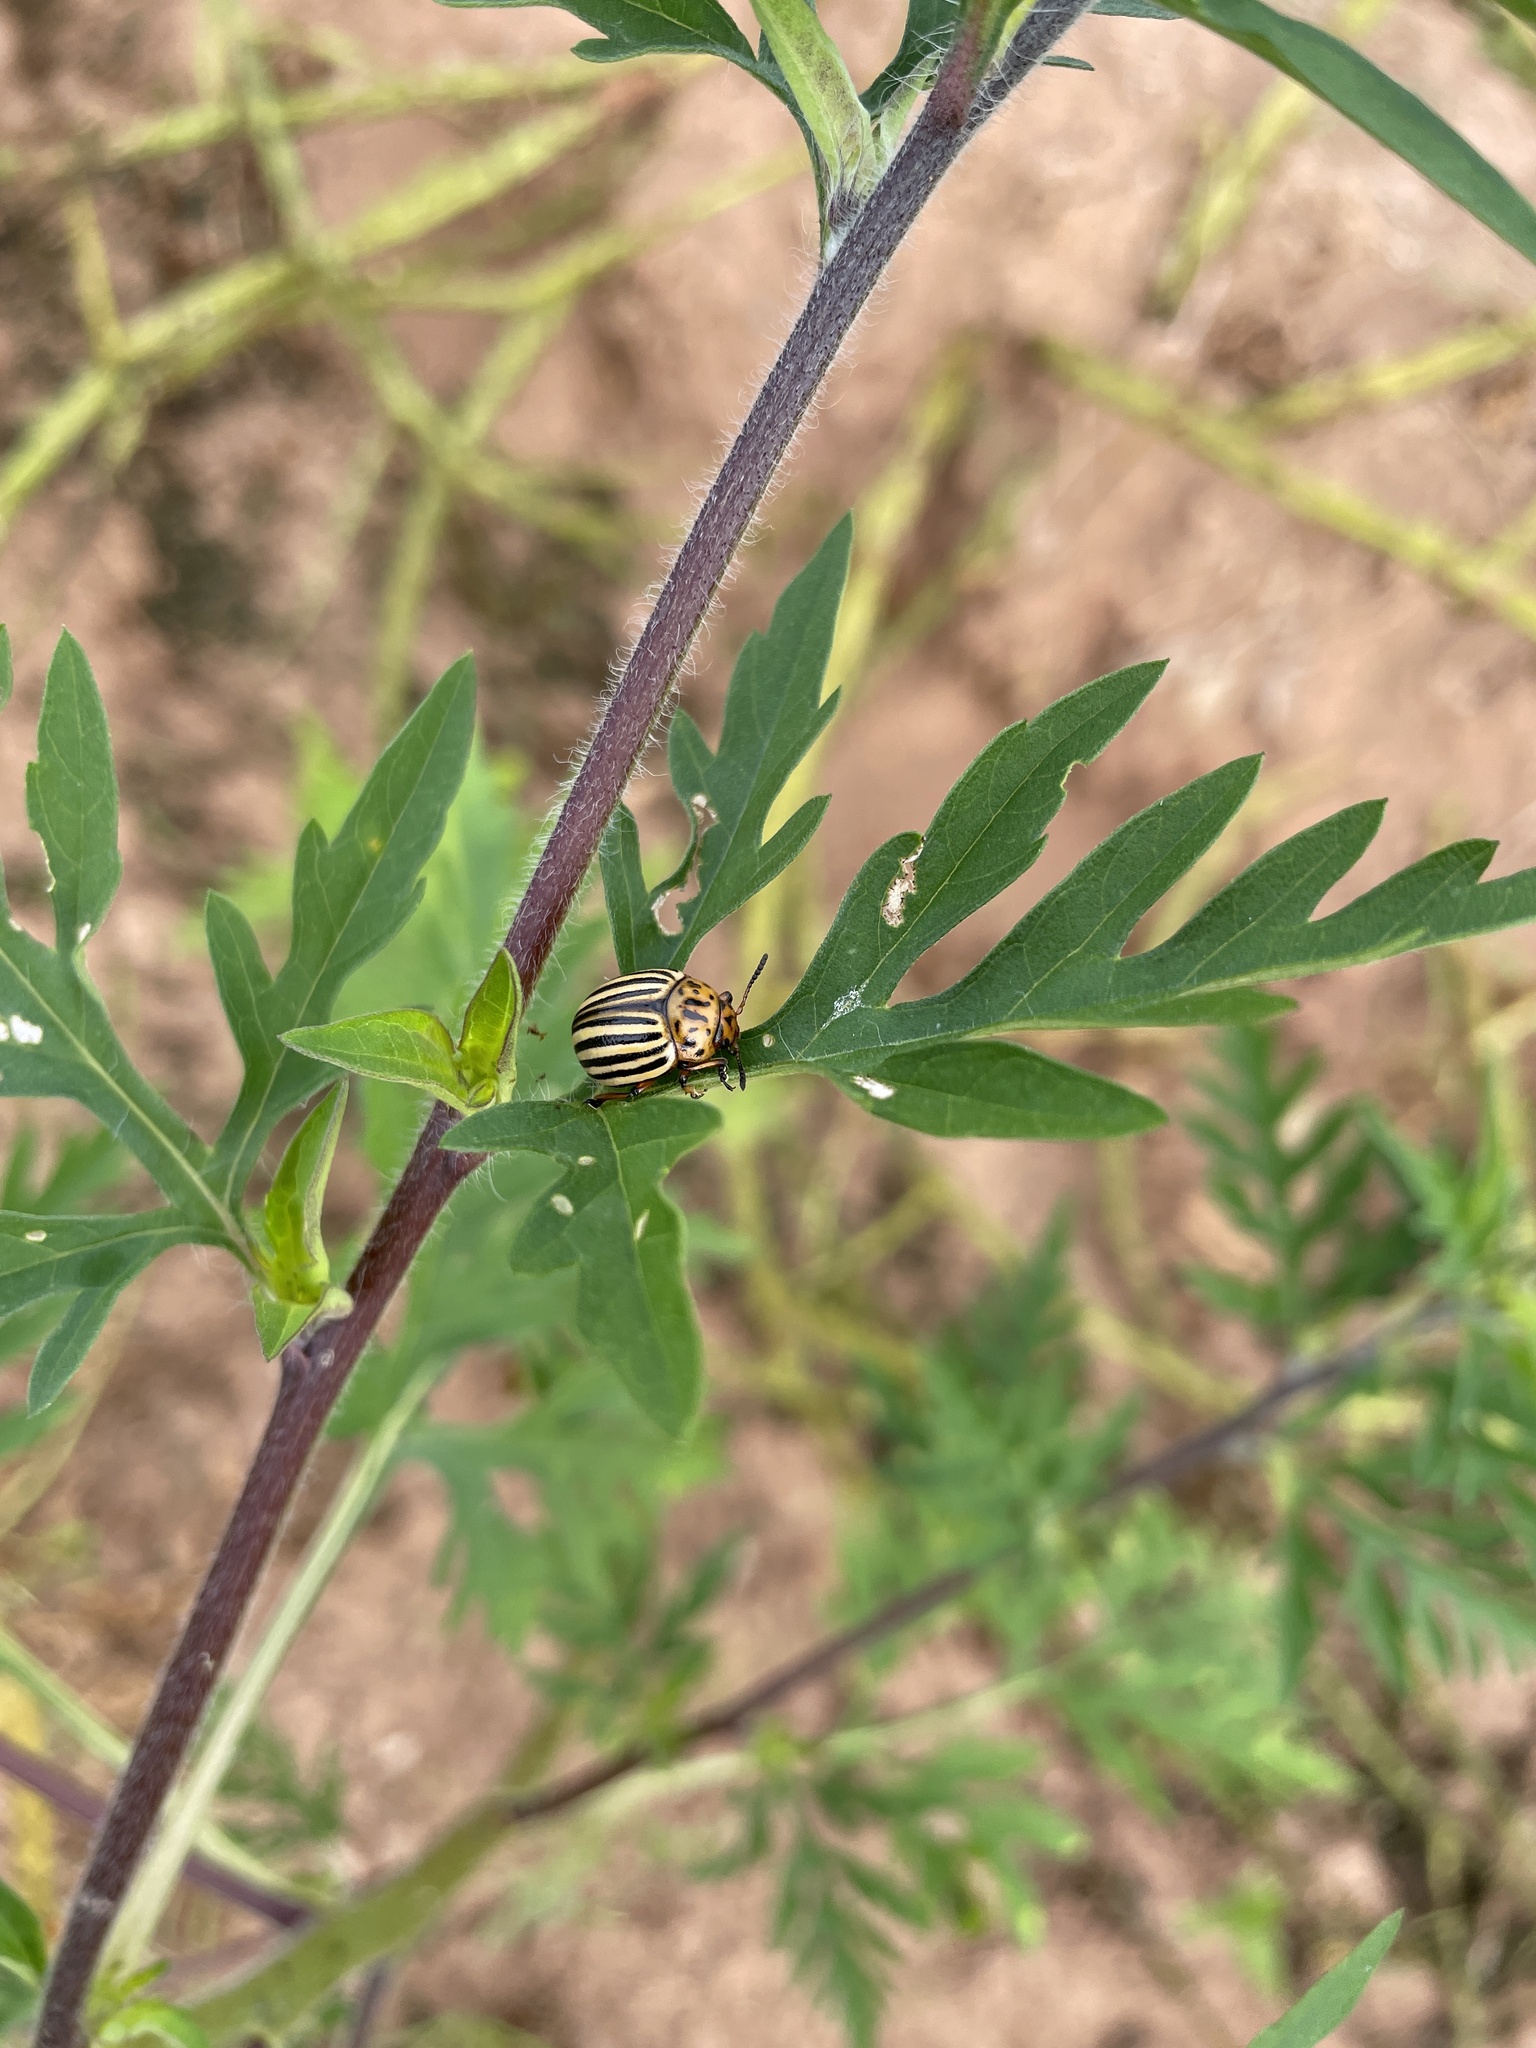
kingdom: Animalia
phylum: Arthropoda
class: Insecta
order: Coleoptera
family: Chrysomelidae
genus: Leptinotarsa
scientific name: Leptinotarsa decemlineata
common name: Colorado potato beetle
